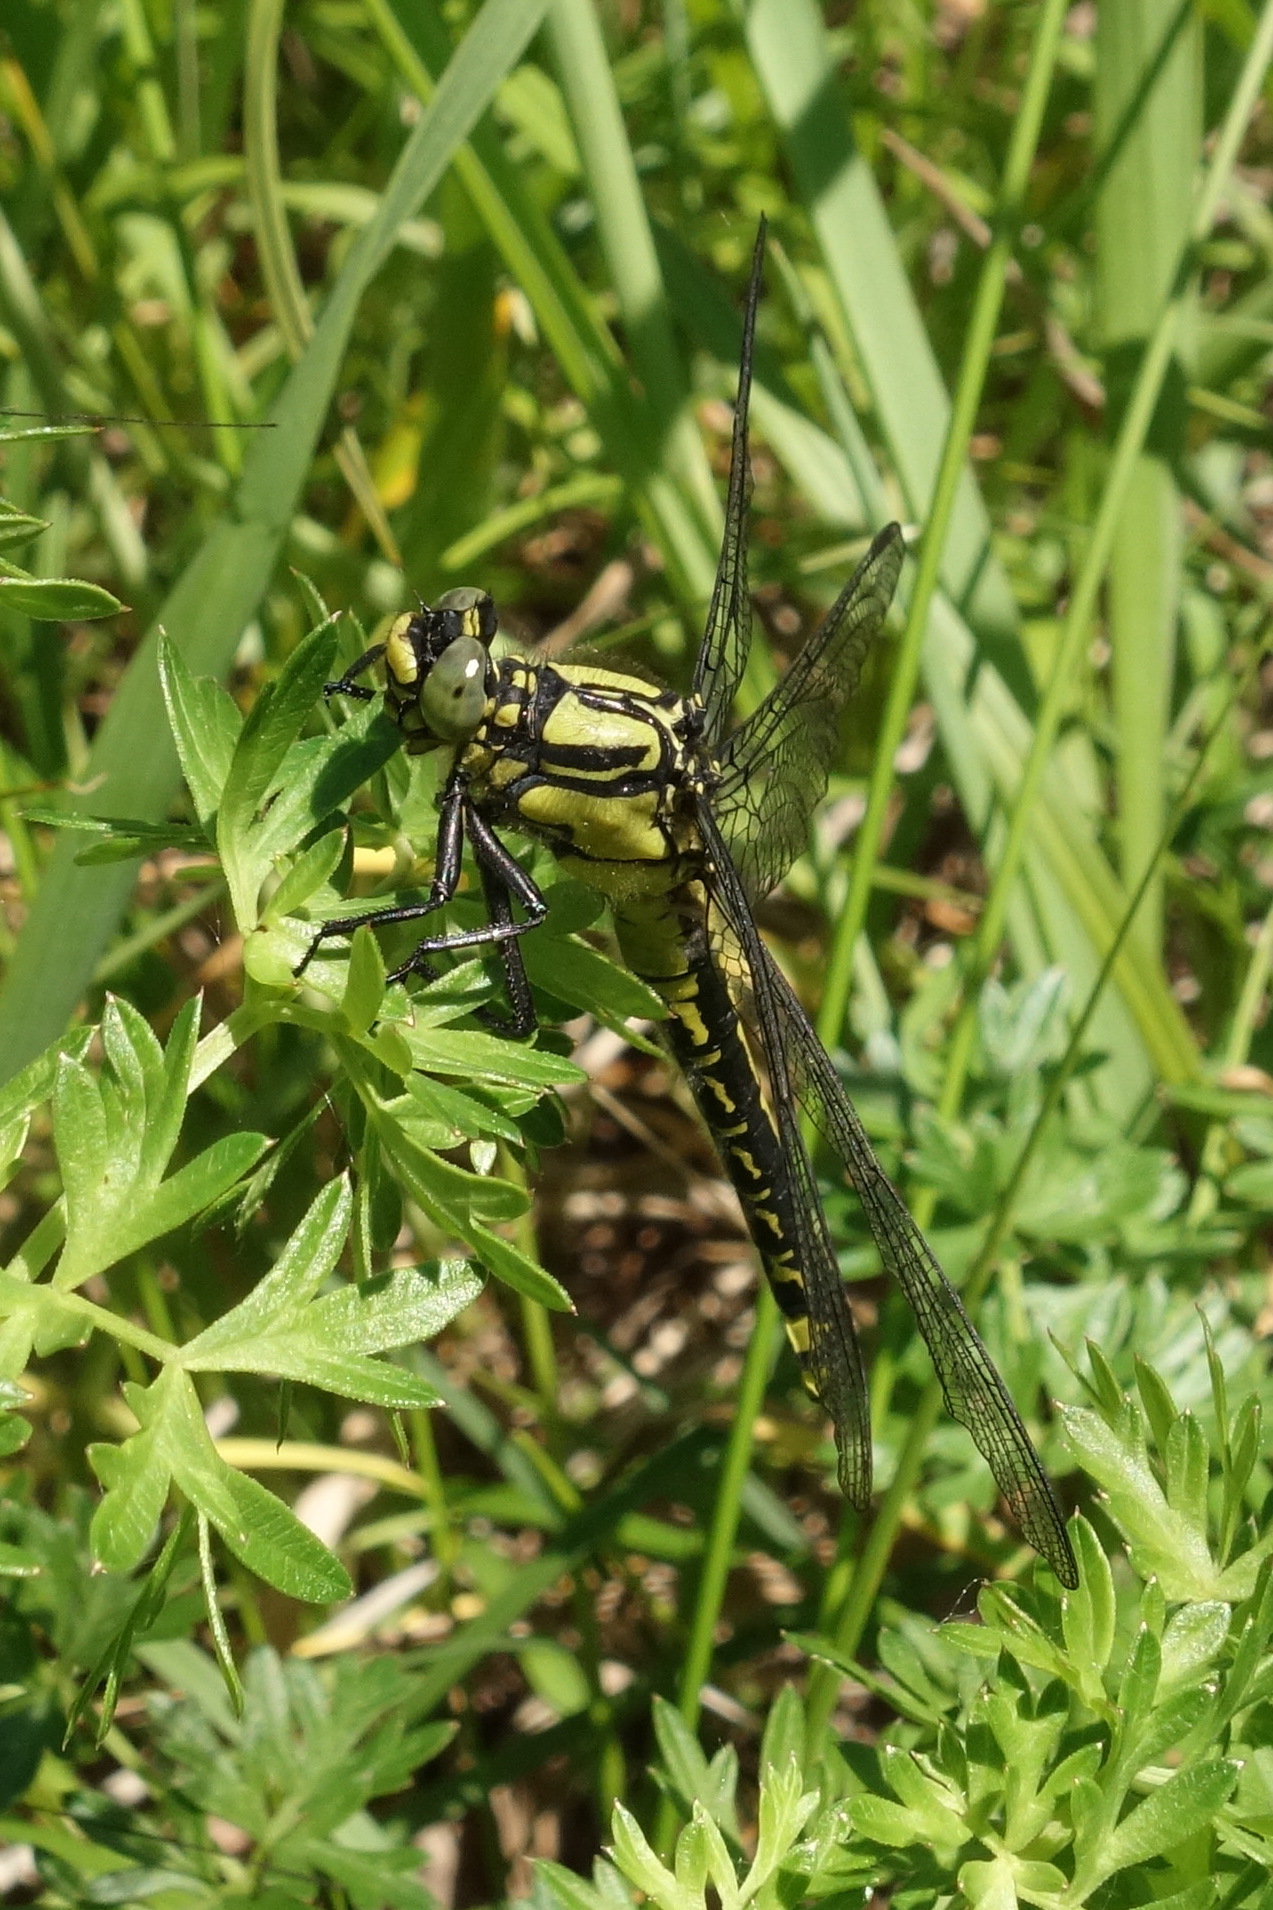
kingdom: Animalia
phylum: Arthropoda
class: Insecta
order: Odonata
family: Gomphidae
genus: Gomphus
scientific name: Gomphus vulgatissimus
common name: Club-tailed dragonfly
